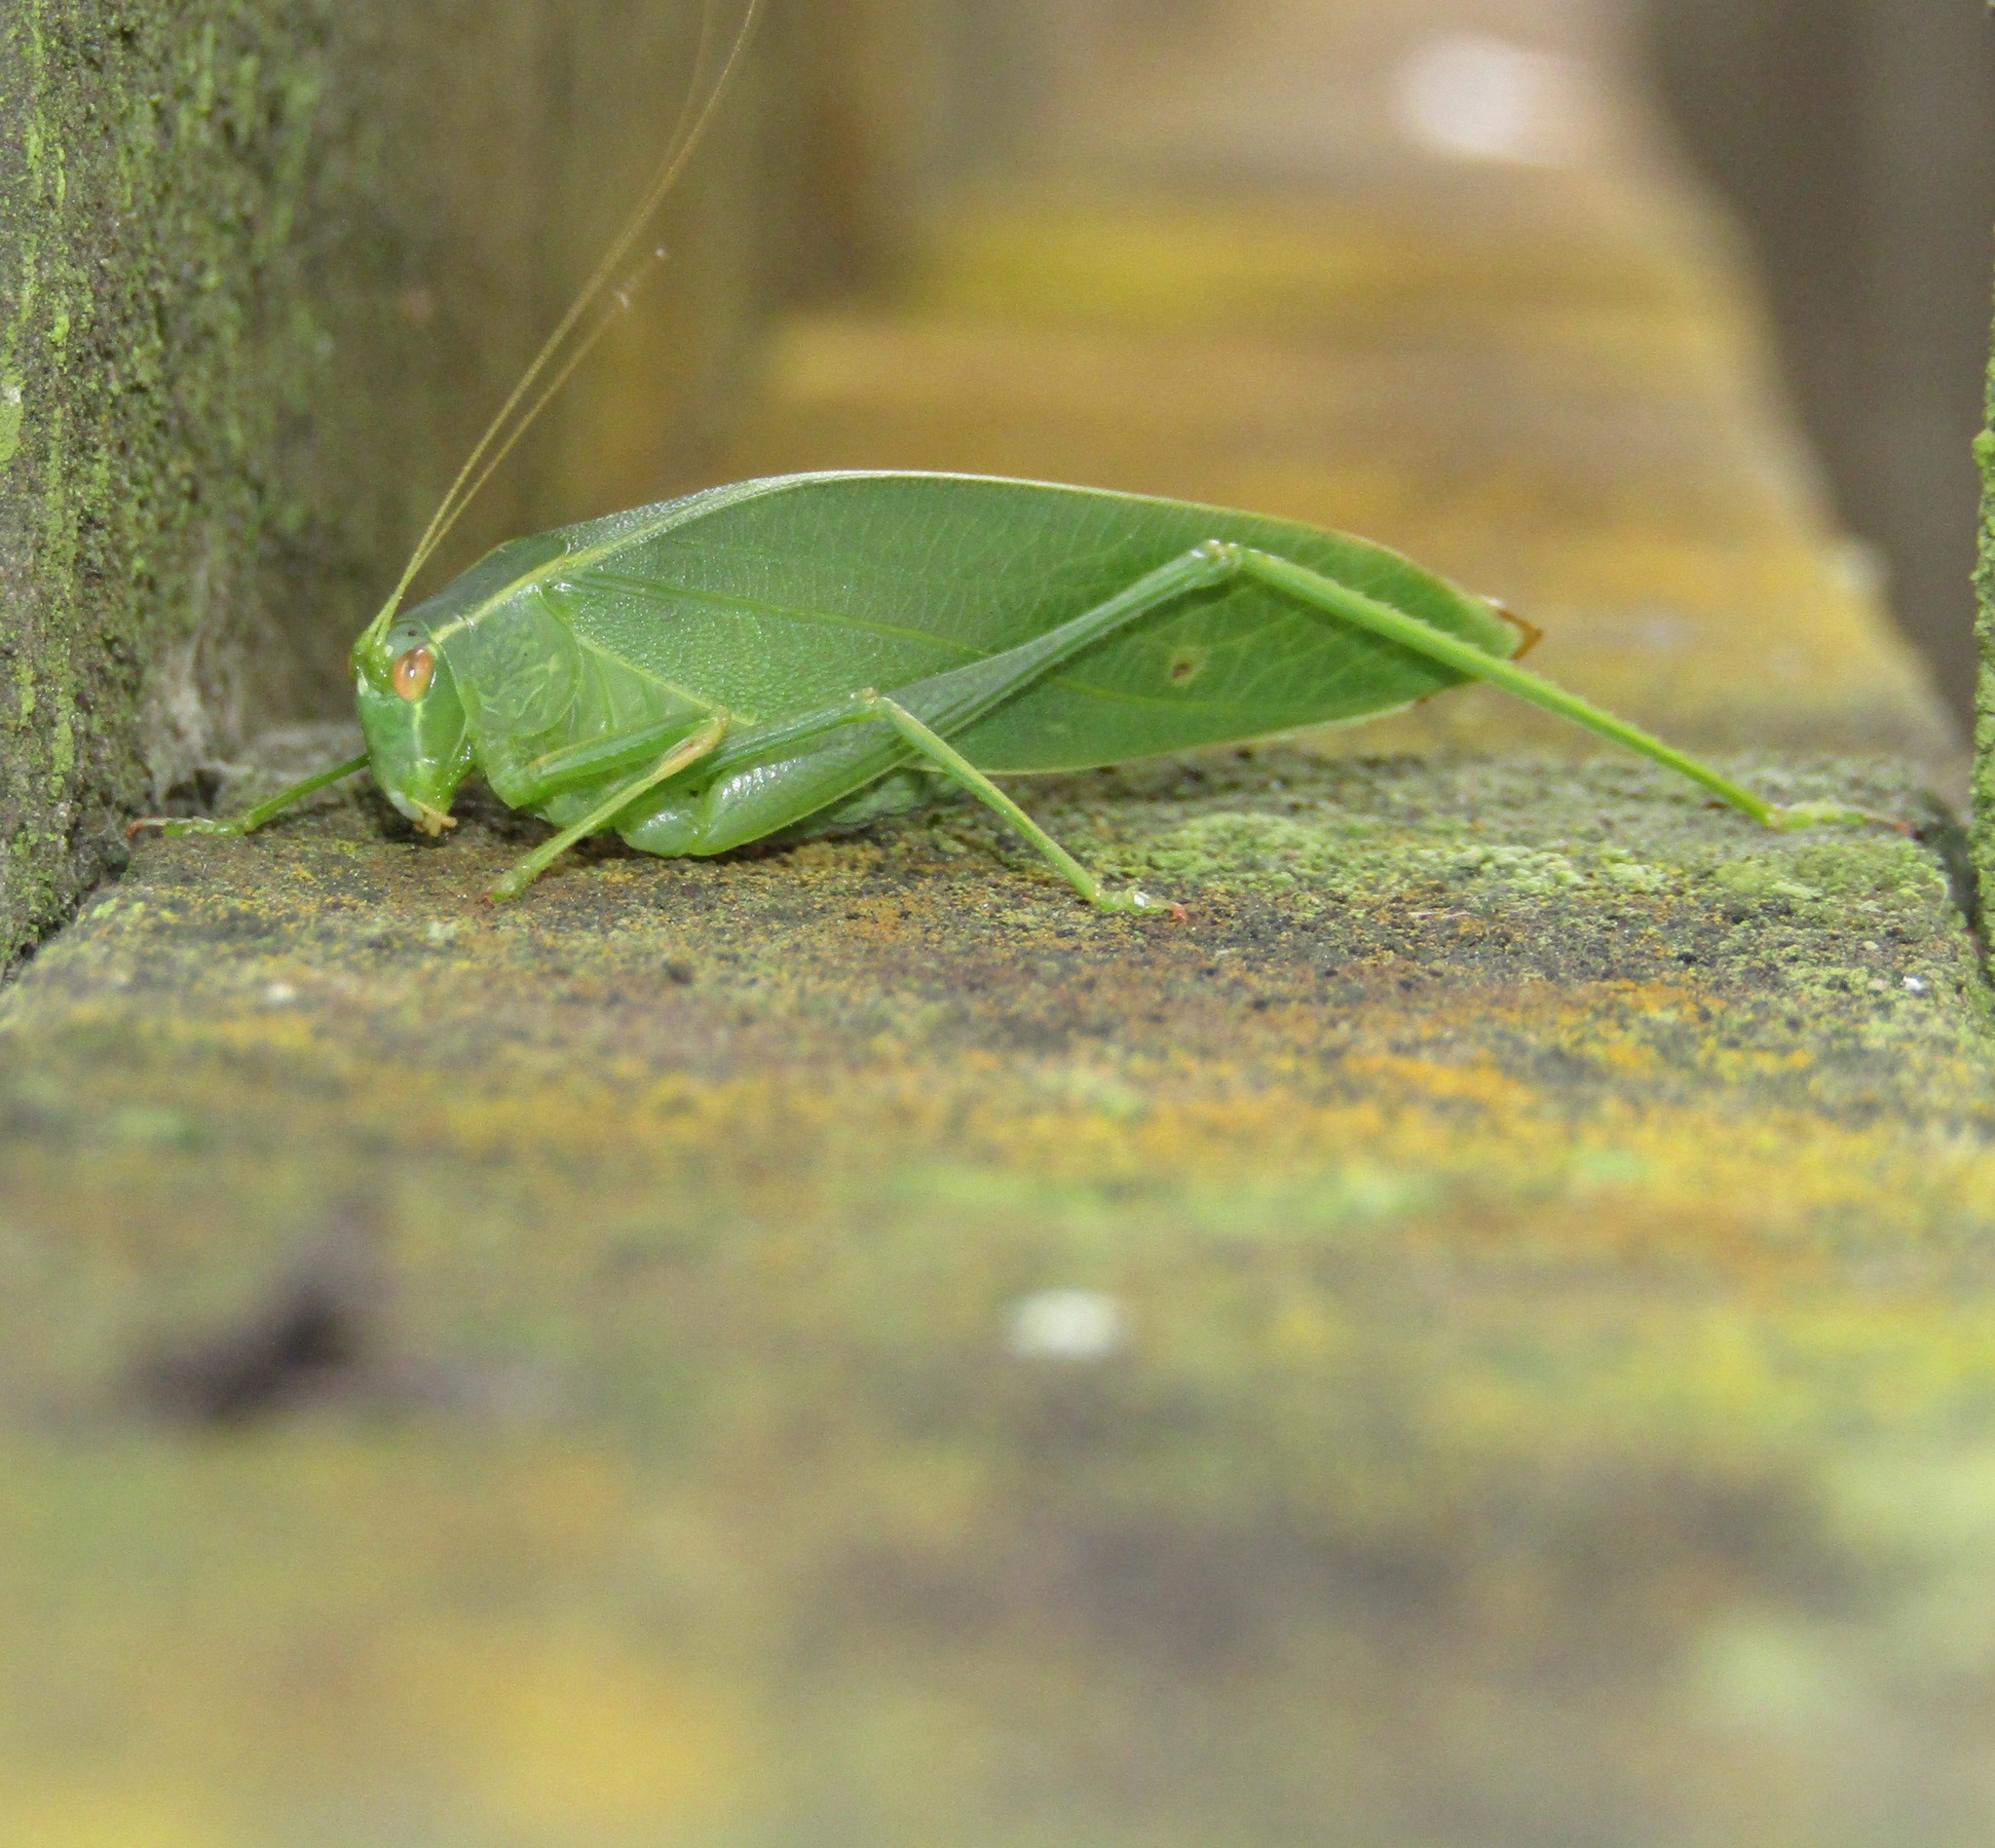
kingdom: Animalia
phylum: Arthropoda
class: Insecta
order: Orthoptera
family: Tettigoniidae
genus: Caedicia
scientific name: Caedicia simplex
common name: Common garden katydid
